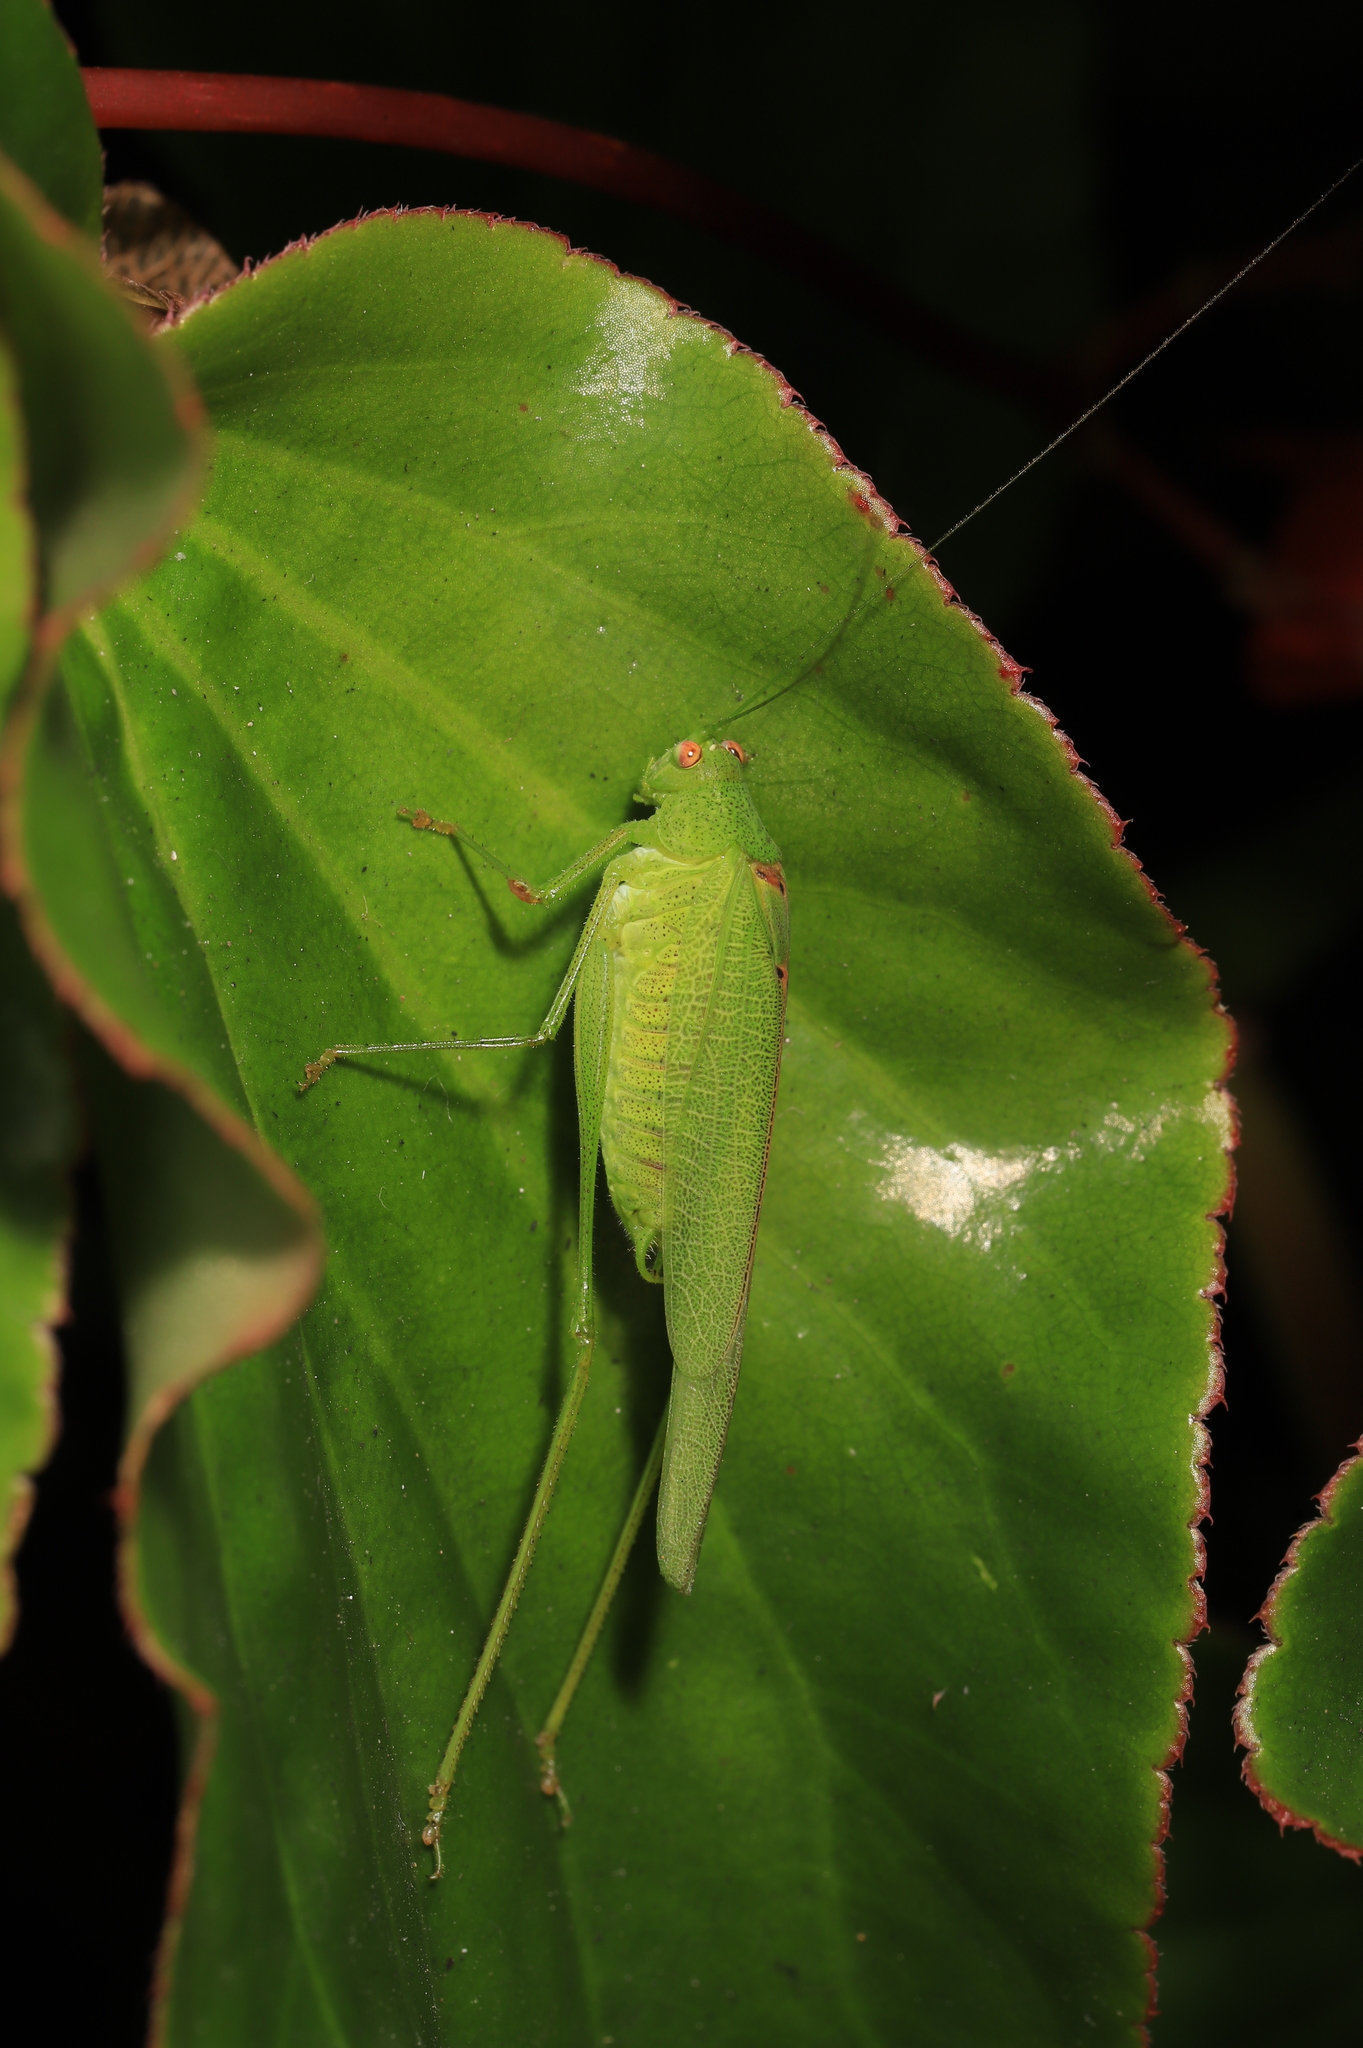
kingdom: Animalia
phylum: Arthropoda
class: Insecta
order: Orthoptera
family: Tettigoniidae
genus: Phaneroptera
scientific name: Phaneroptera nana
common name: Southern sickle bush-cricket
